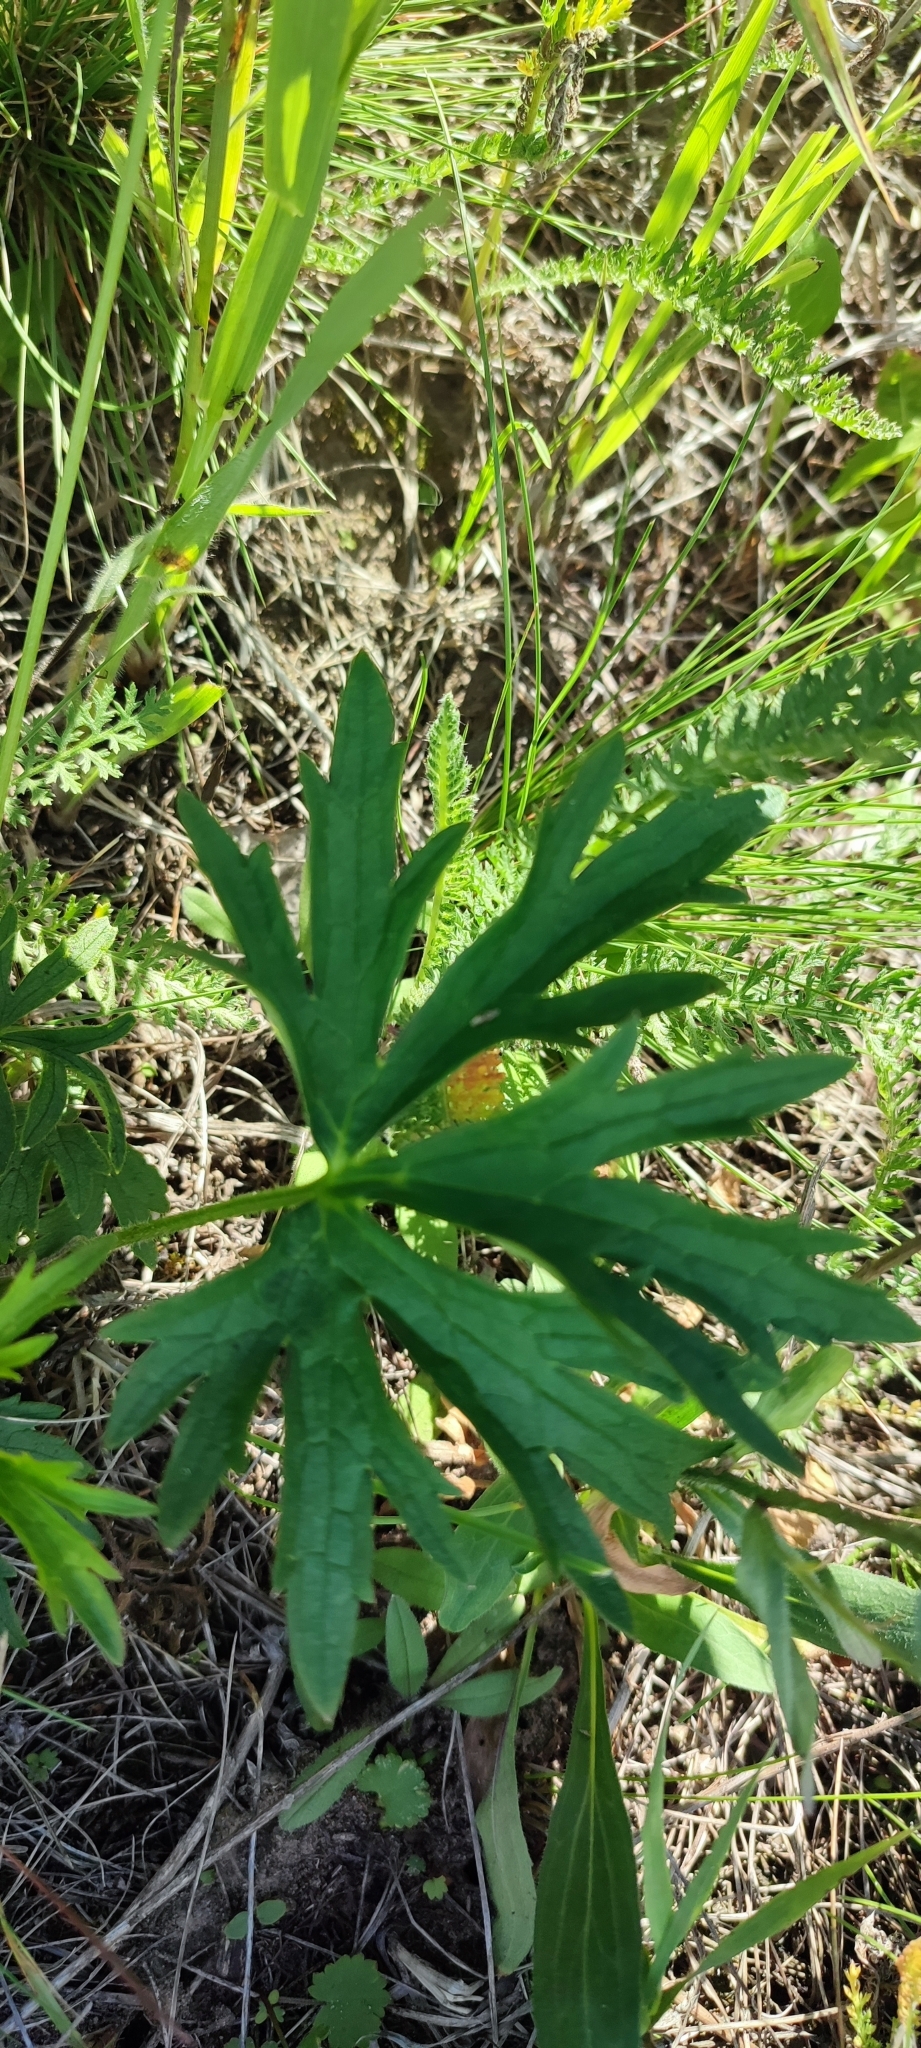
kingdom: Plantae
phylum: Tracheophyta
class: Magnoliopsida
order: Ranunculales
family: Ranunculaceae
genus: Ranunculus
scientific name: Ranunculus polyanthemos
